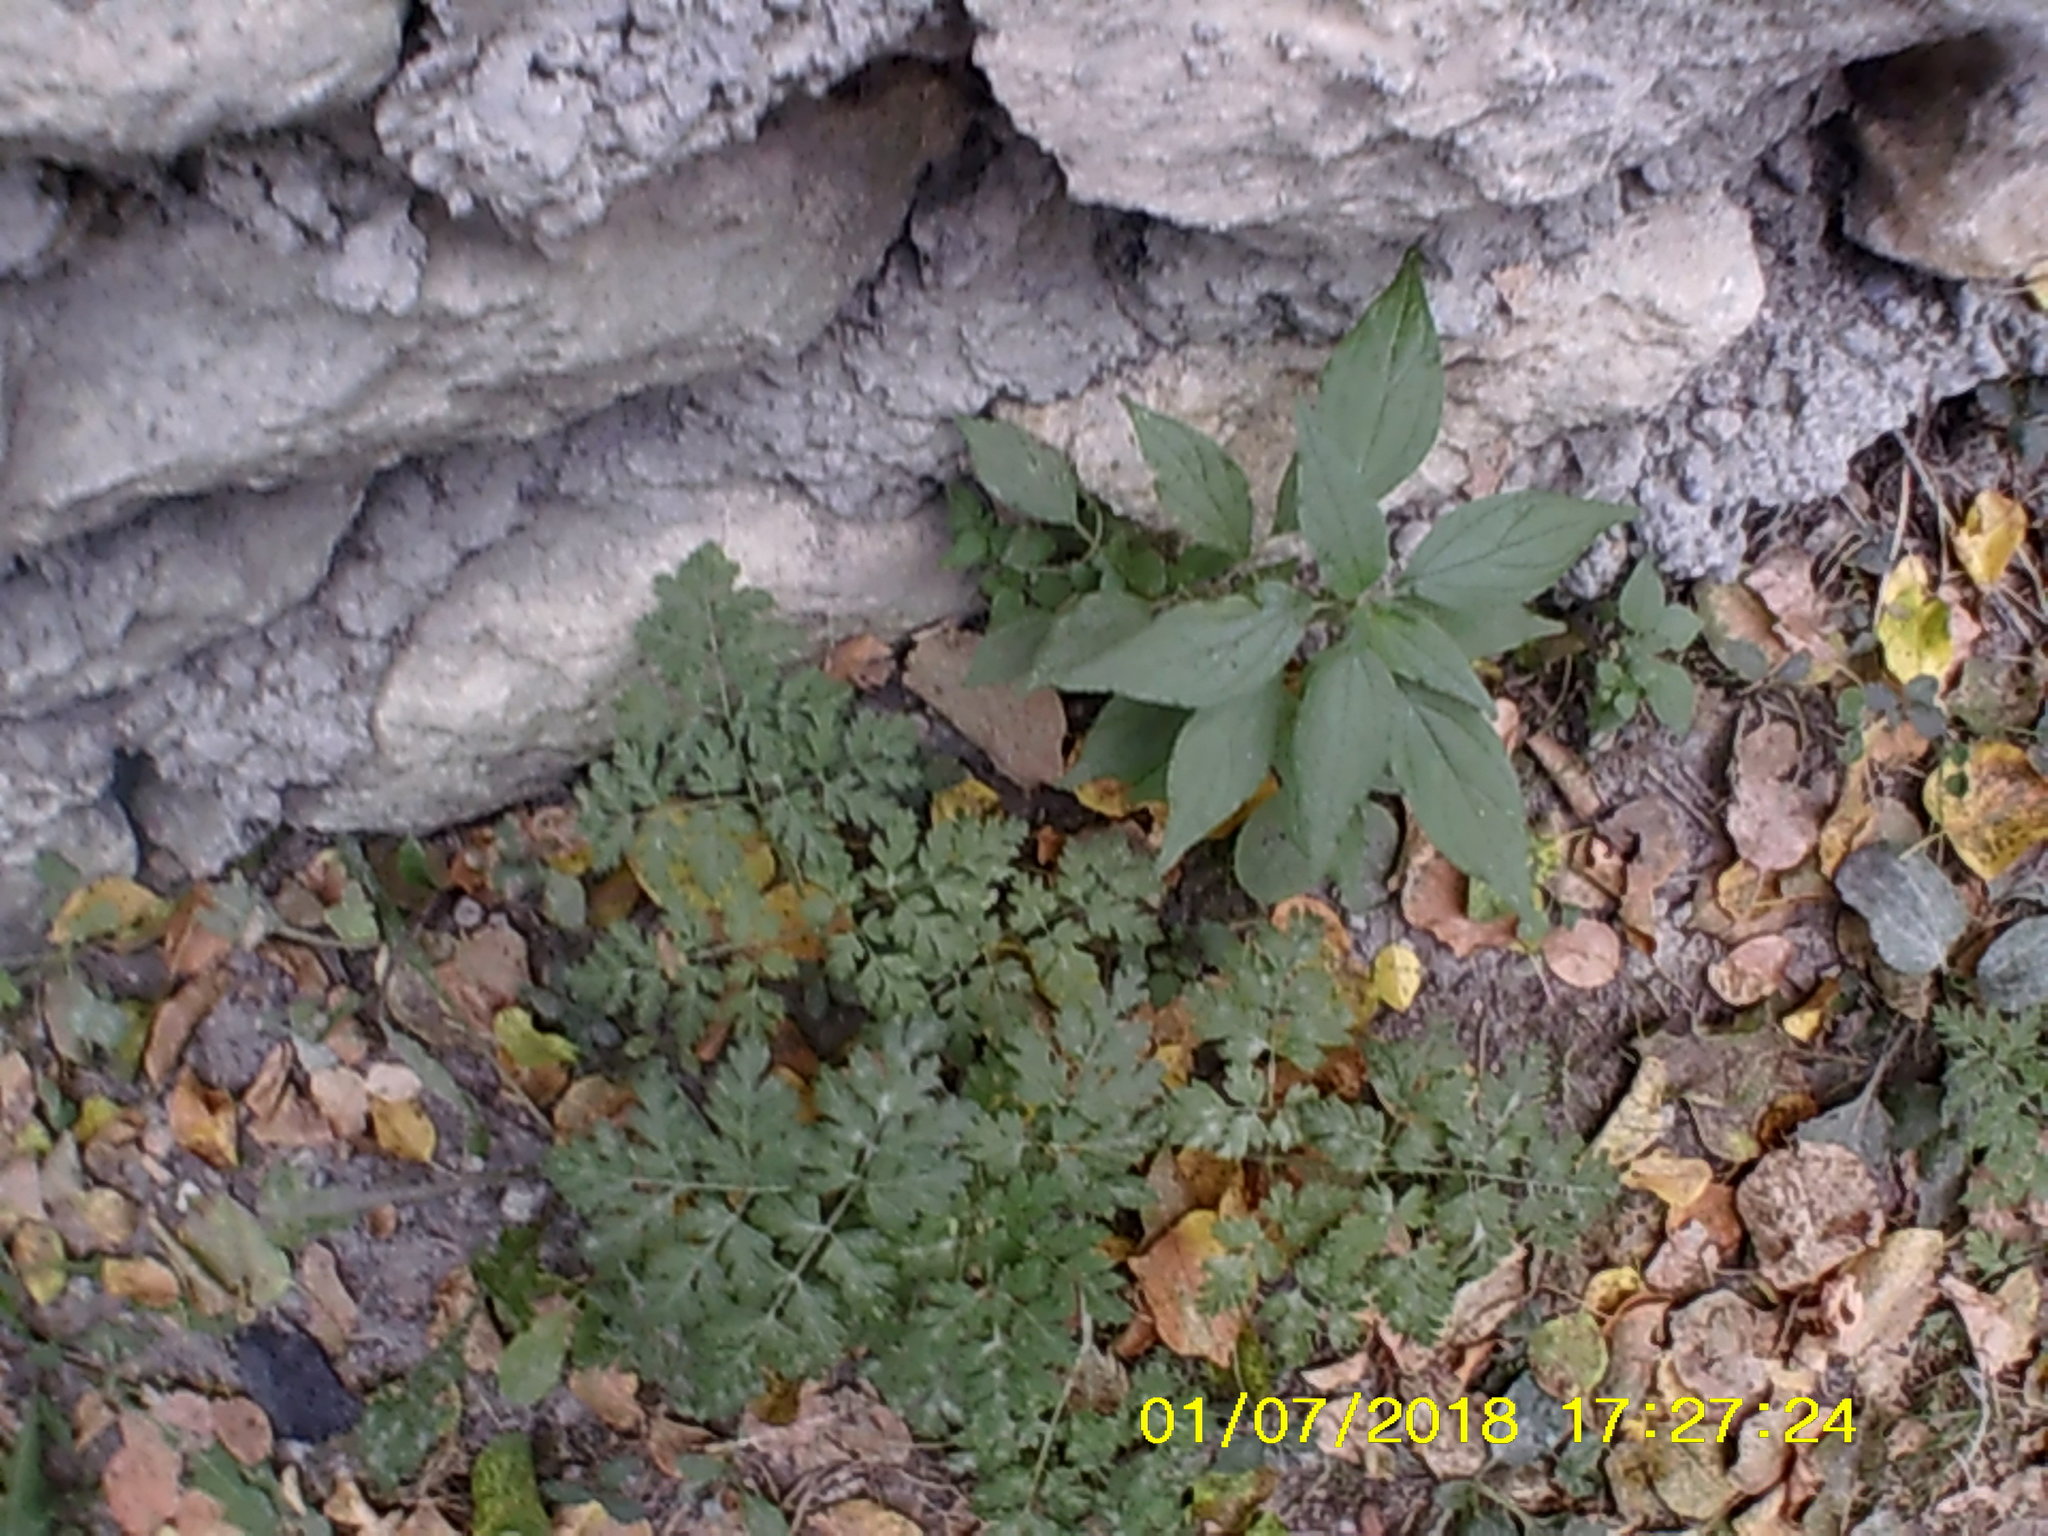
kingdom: Plantae
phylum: Tracheophyta
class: Magnoliopsida
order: Rosales
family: Urticaceae
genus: Parietaria
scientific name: Parietaria judaica
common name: Pellitory-of-the-wall
